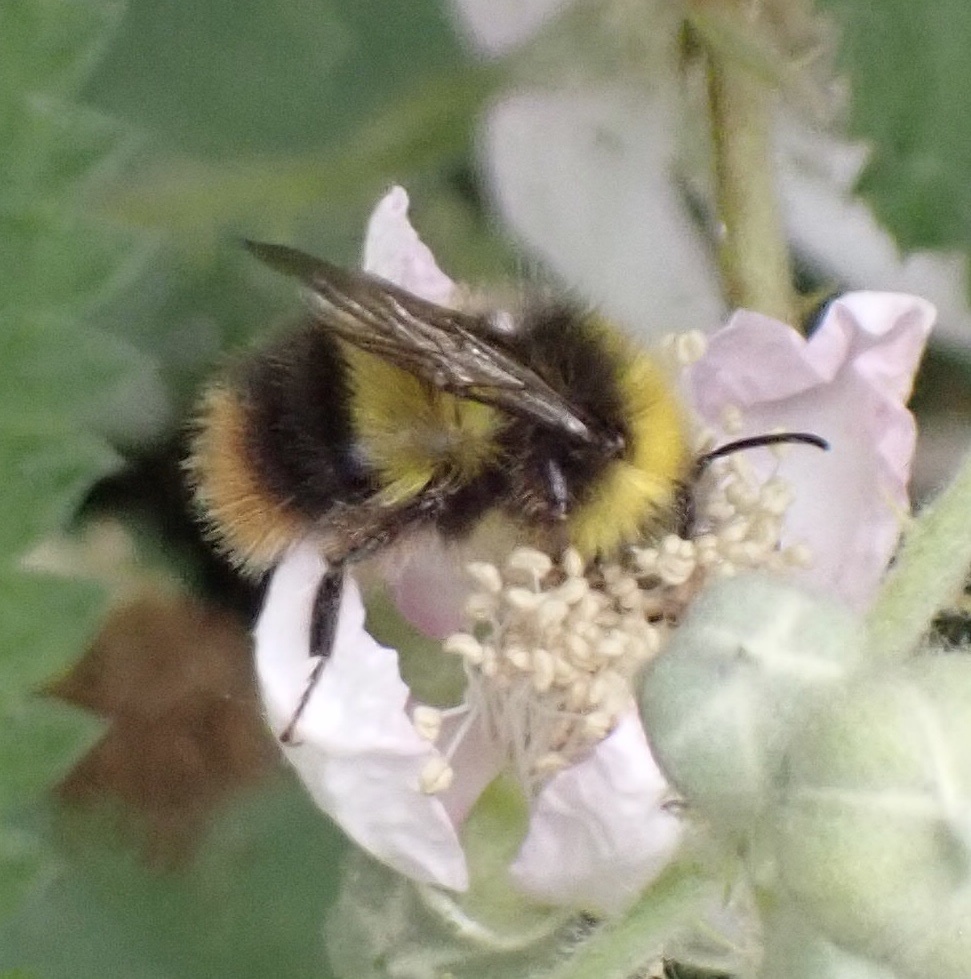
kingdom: Animalia
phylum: Arthropoda
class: Insecta
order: Hymenoptera
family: Apidae
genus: Bombus
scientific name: Bombus pratorum
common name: Early humble-bee
